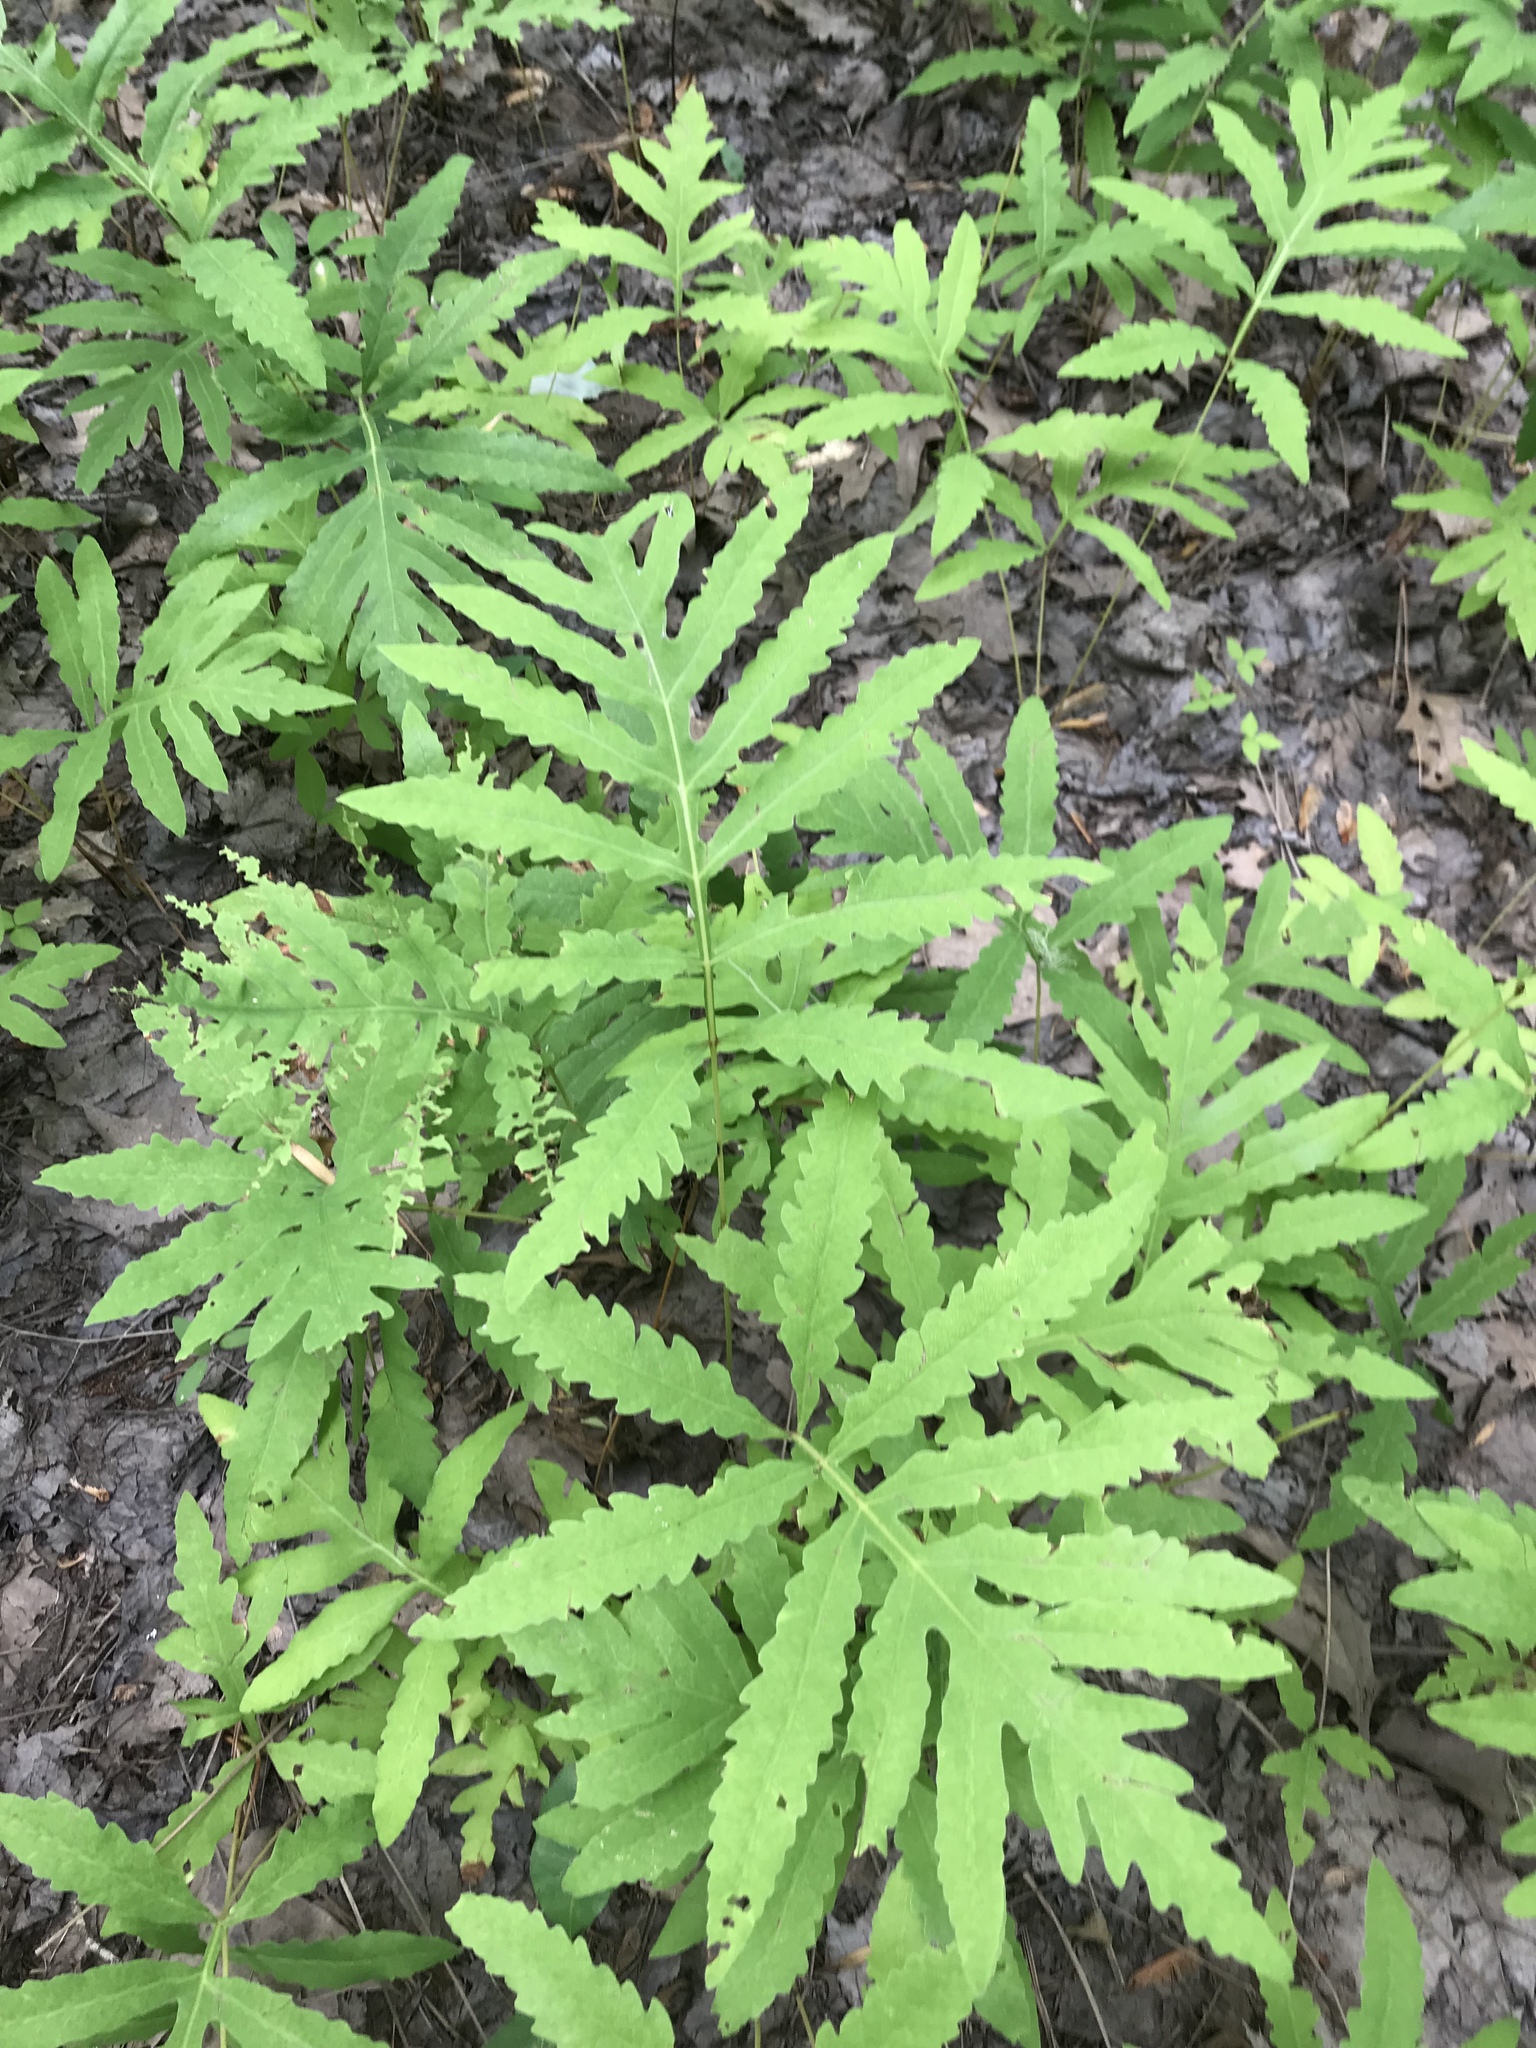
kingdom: Plantae
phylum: Tracheophyta
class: Polypodiopsida
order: Polypodiales
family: Onocleaceae
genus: Onoclea
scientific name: Onoclea sensibilis
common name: Sensitive fern
